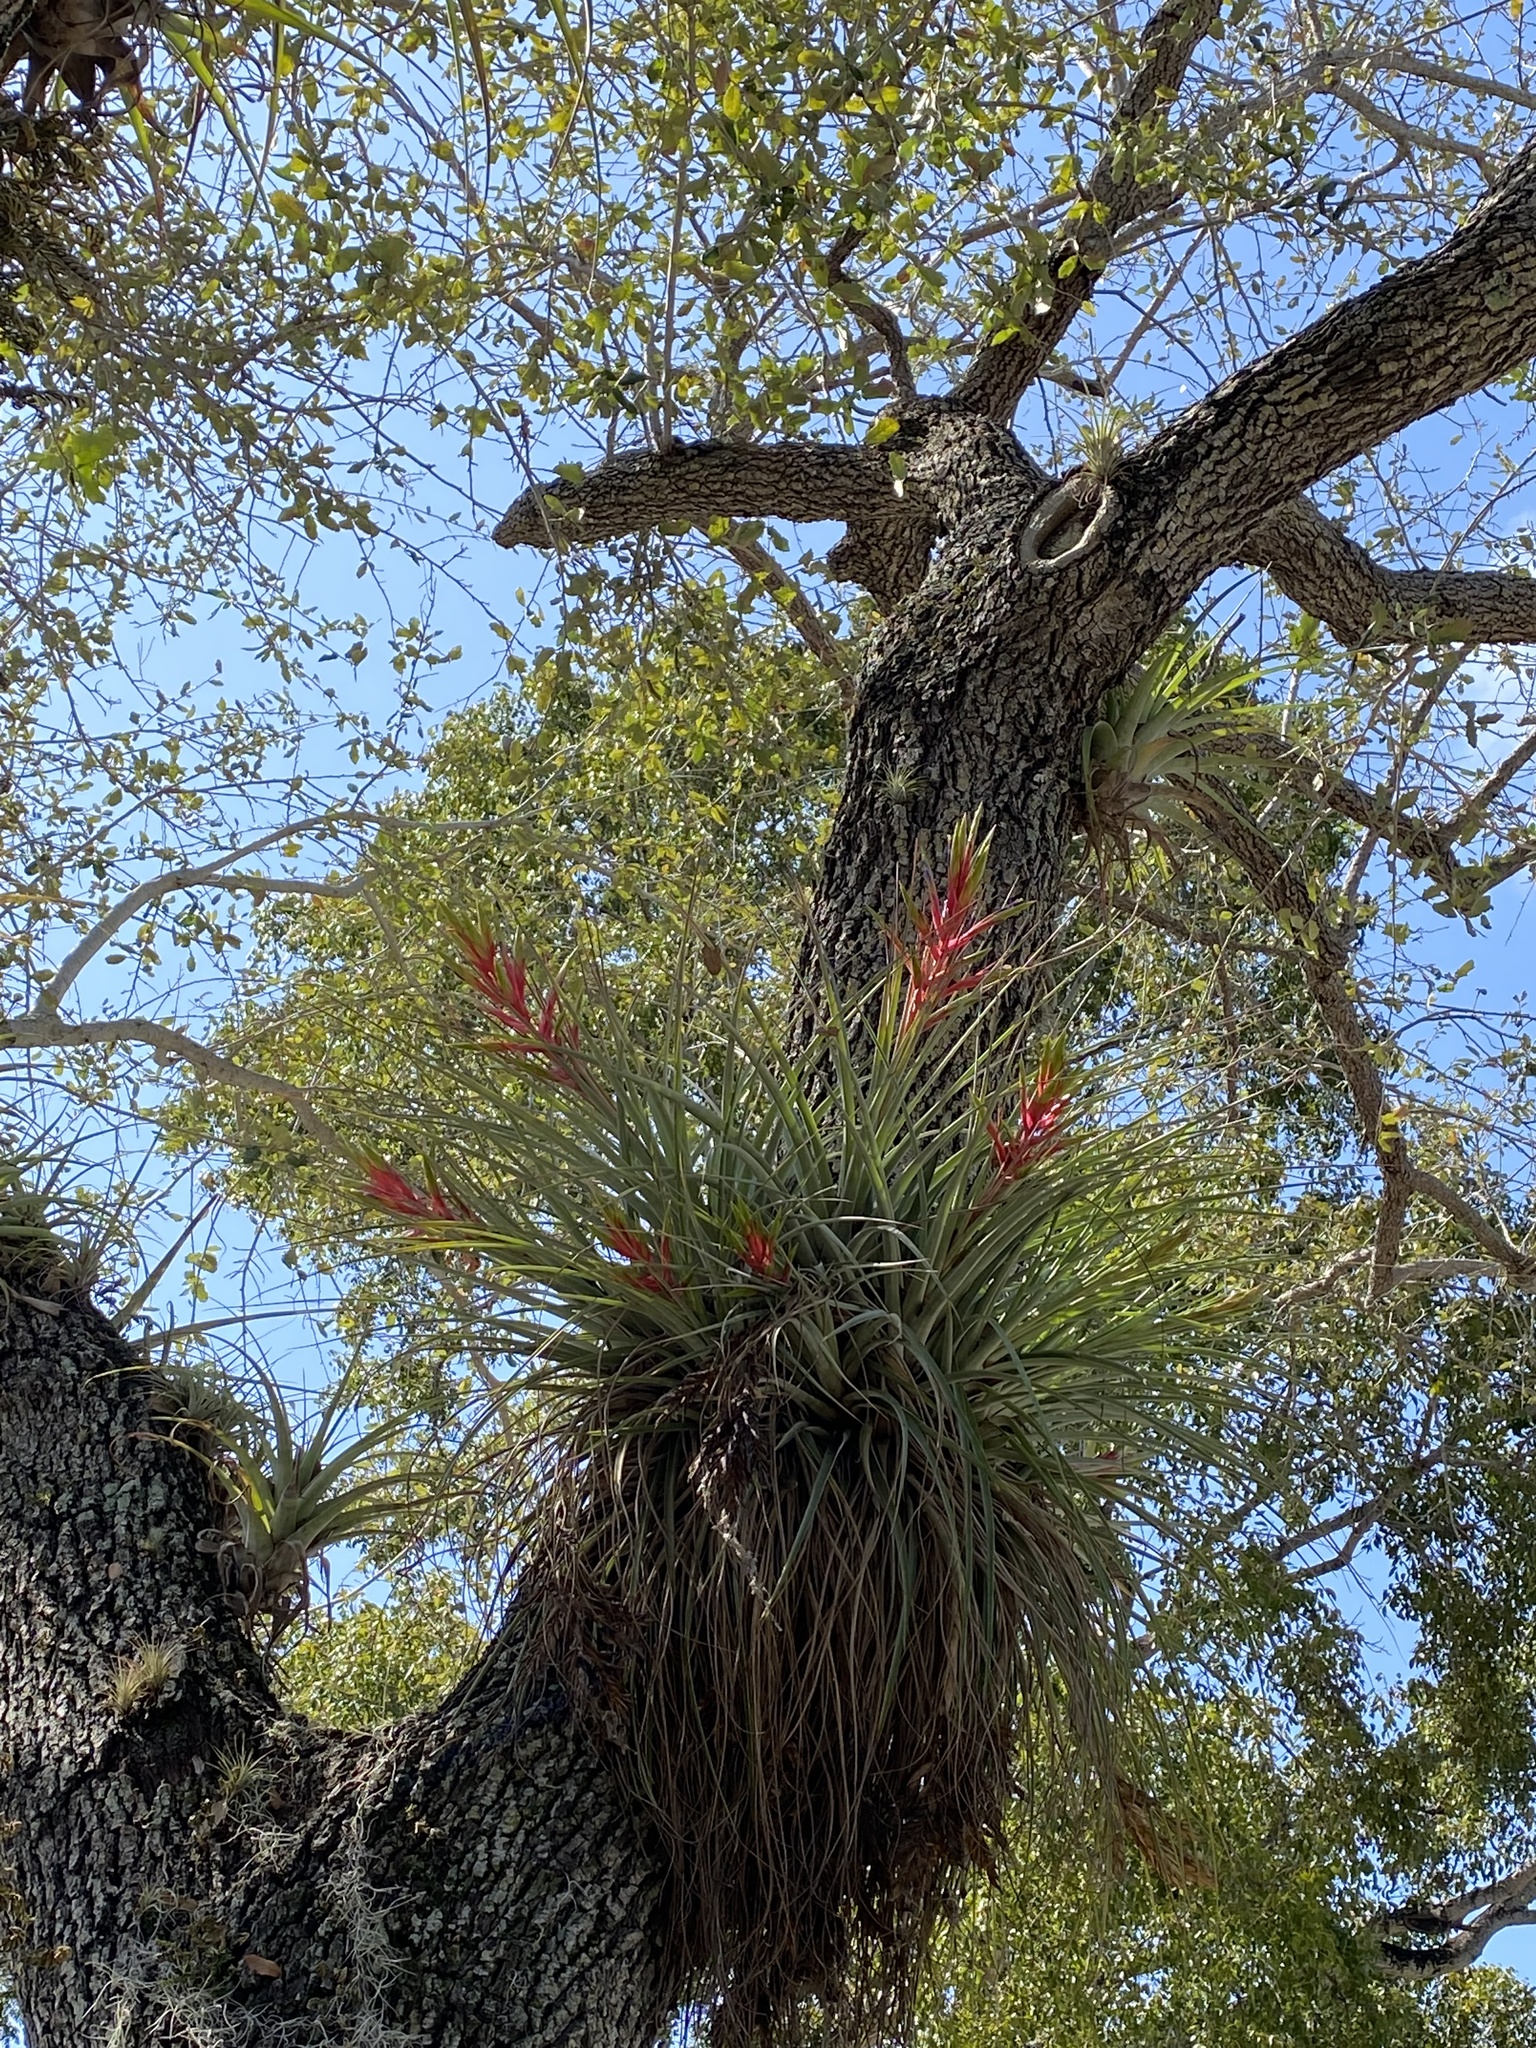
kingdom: Plantae
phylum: Tracheophyta
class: Liliopsida
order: Poales
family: Bromeliaceae
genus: Tillandsia
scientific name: Tillandsia fasciculata
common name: Giant airplant
